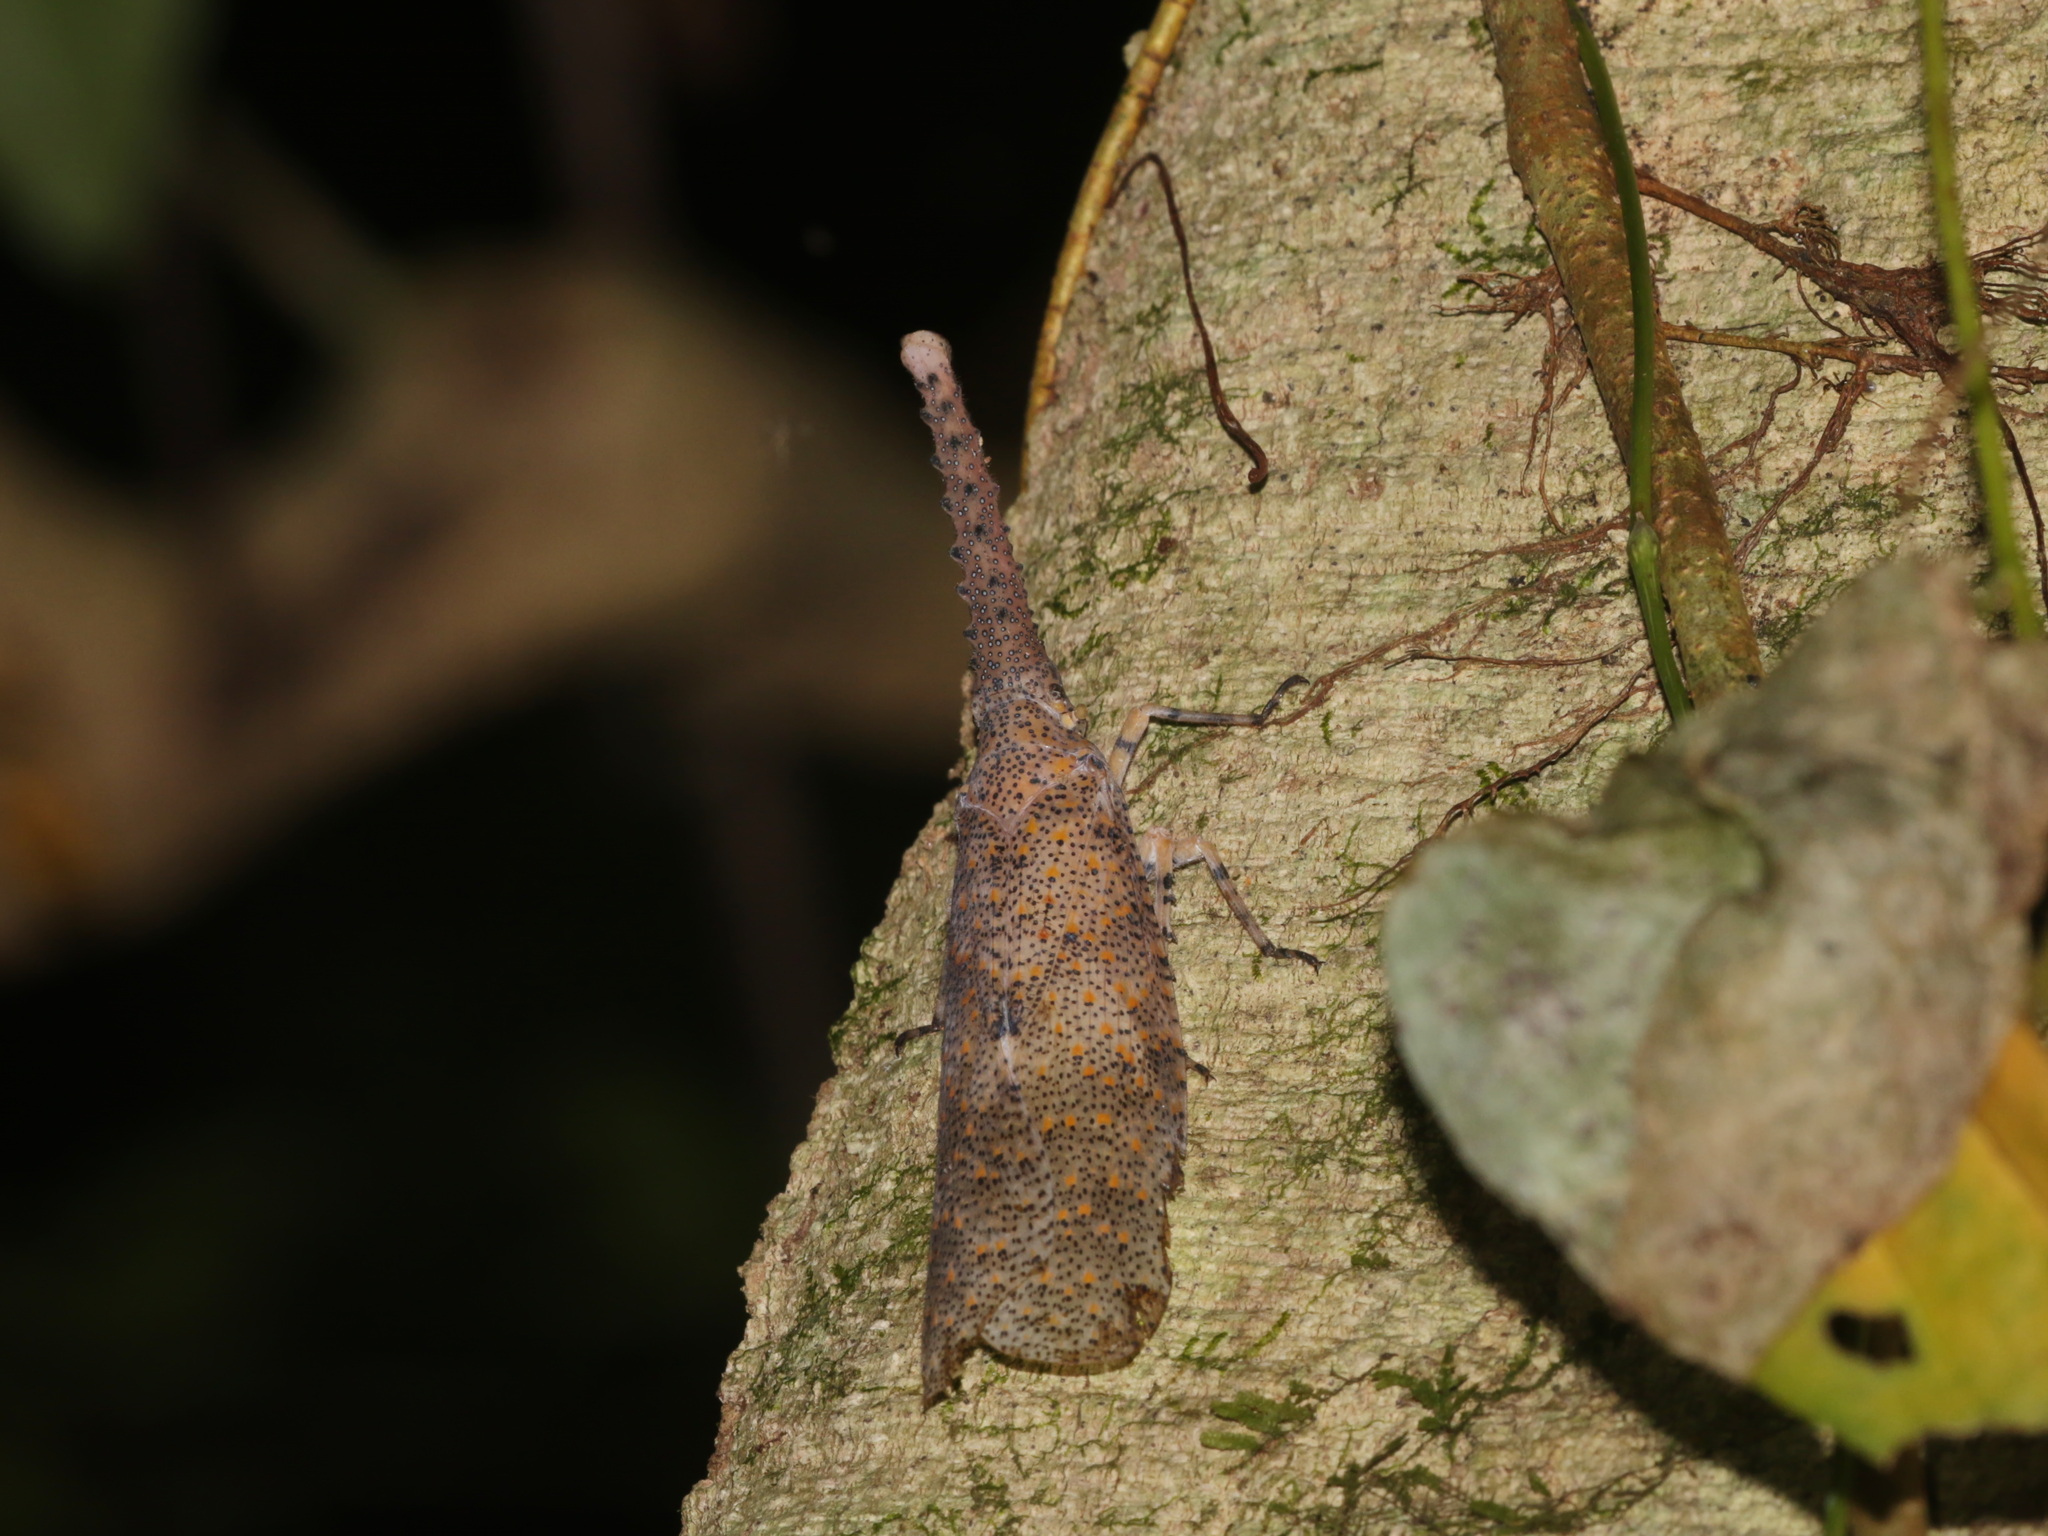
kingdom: Animalia
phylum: Arthropoda
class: Insecta
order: Hemiptera
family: Fulgoridae
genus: Zanna
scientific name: Zanna terminalis
